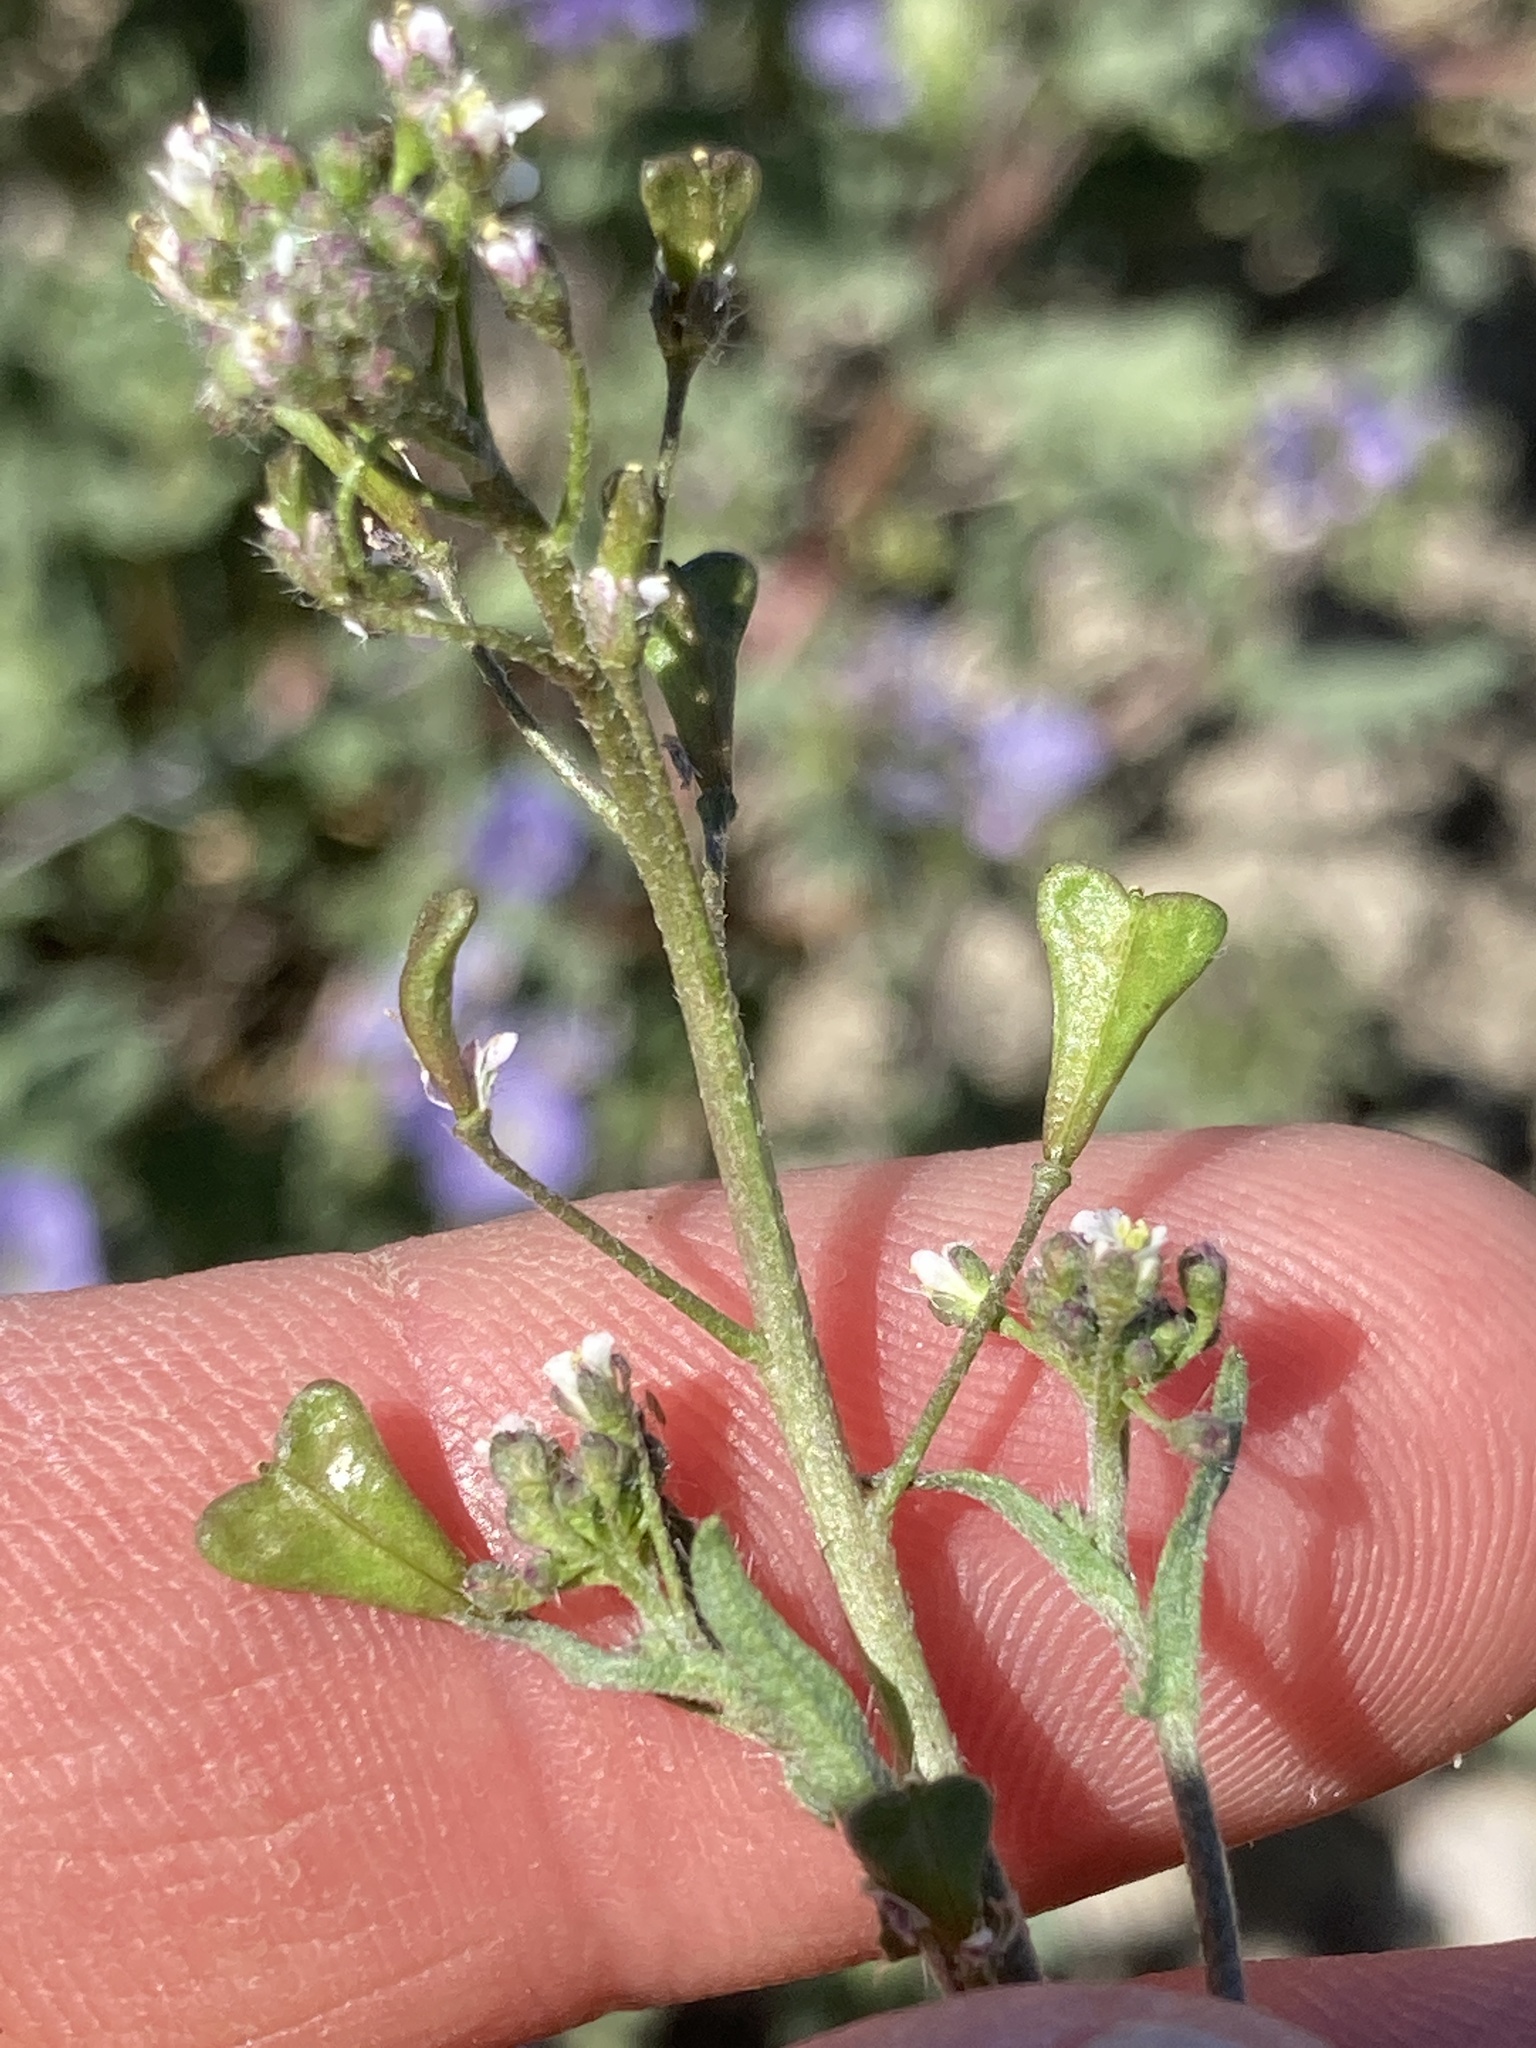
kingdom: Plantae
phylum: Tracheophyta
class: Magnoliopsida
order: Brassicales
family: Brassicaceae
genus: Capsella
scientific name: Capsella bursa-pastoris
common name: Shepherd's purse
